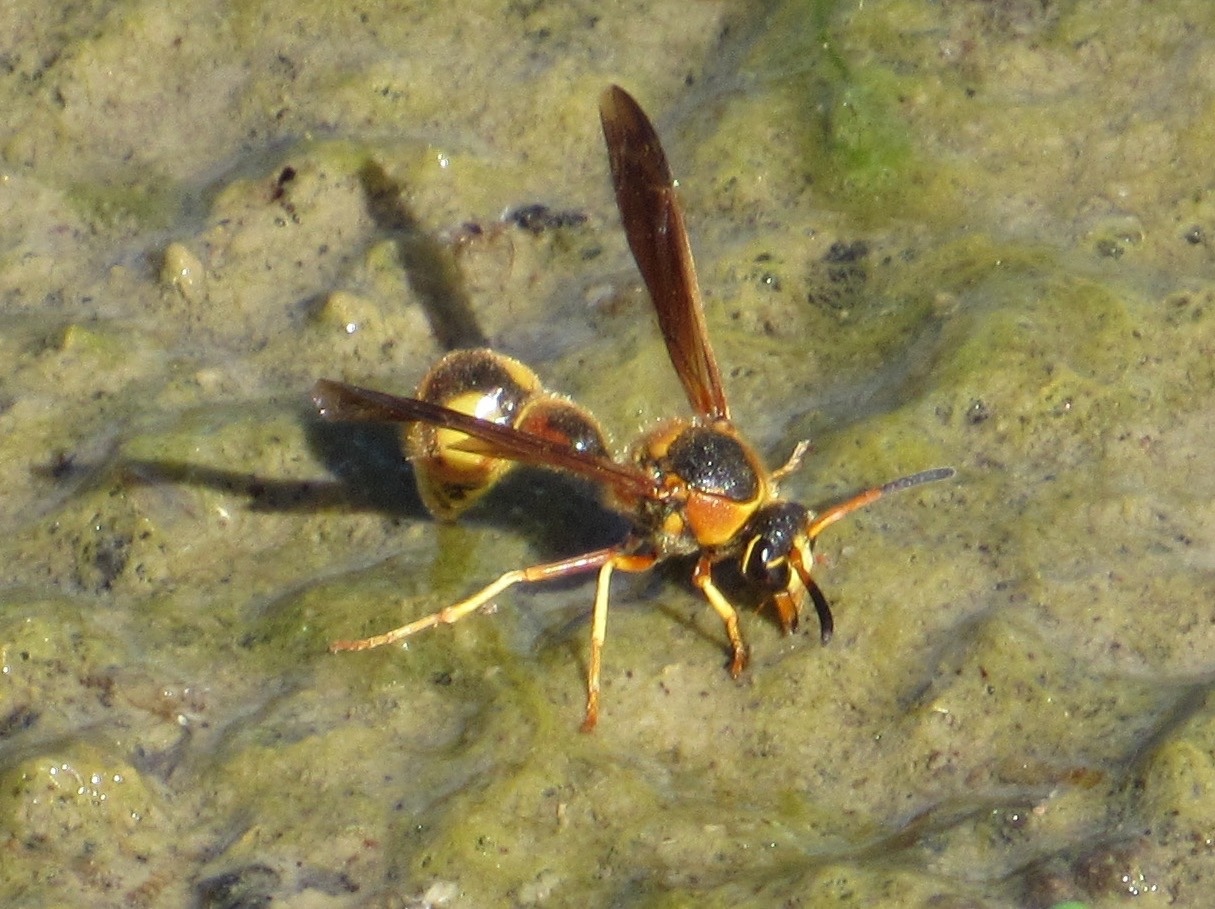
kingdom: Animalia
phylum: Arthropoda
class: Insecta
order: Hymenoptera
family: Vespidae
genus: Eumenes
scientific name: Eumenes bollii
